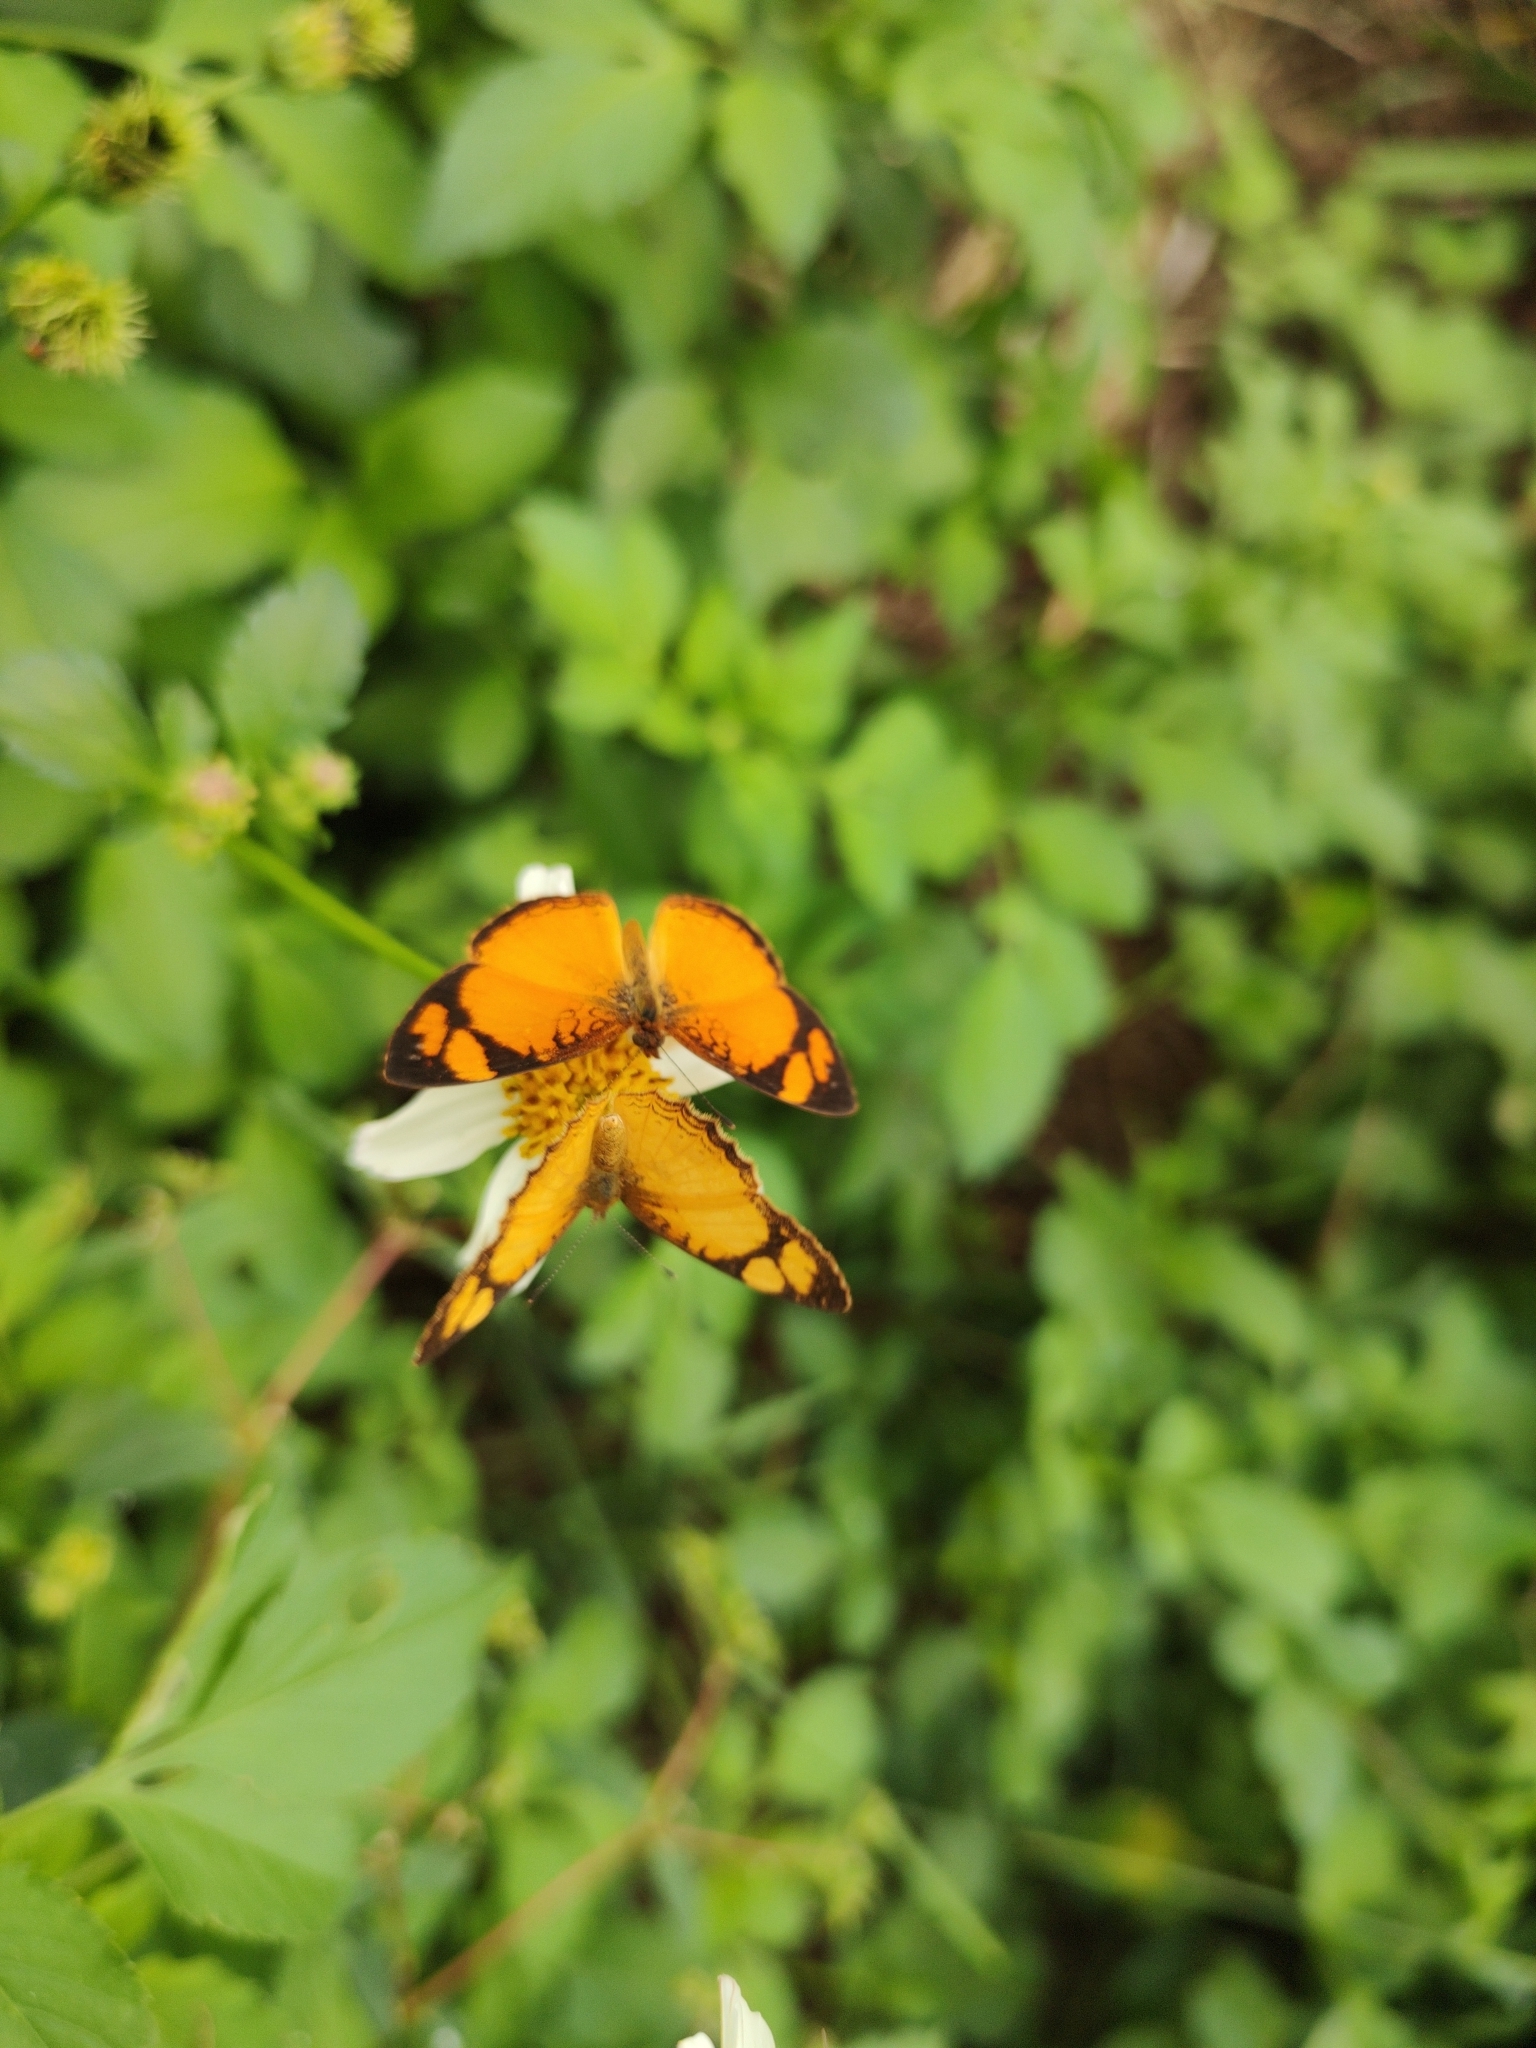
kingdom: Animalia
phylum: Arthropoda
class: Insecta
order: Lepidoptera
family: Nymphalidae
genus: Tegosa
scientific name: Tegosa claudina
